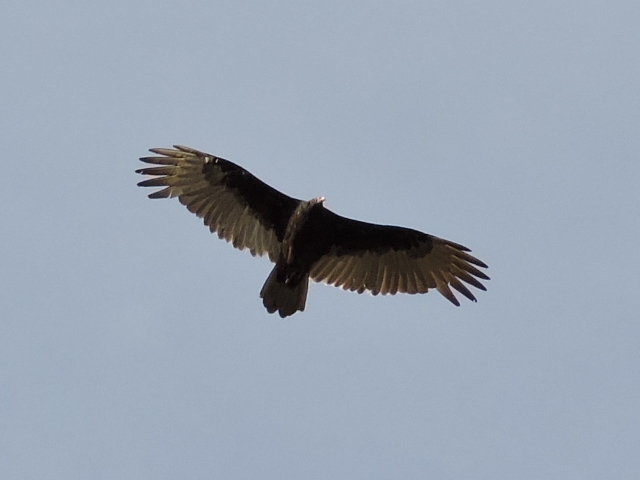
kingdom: Animalia
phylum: Chordata
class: Aves
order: Accipitriformes
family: Cathartidae
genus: Cathartes
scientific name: Cathartes aura
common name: Turkey vulture
